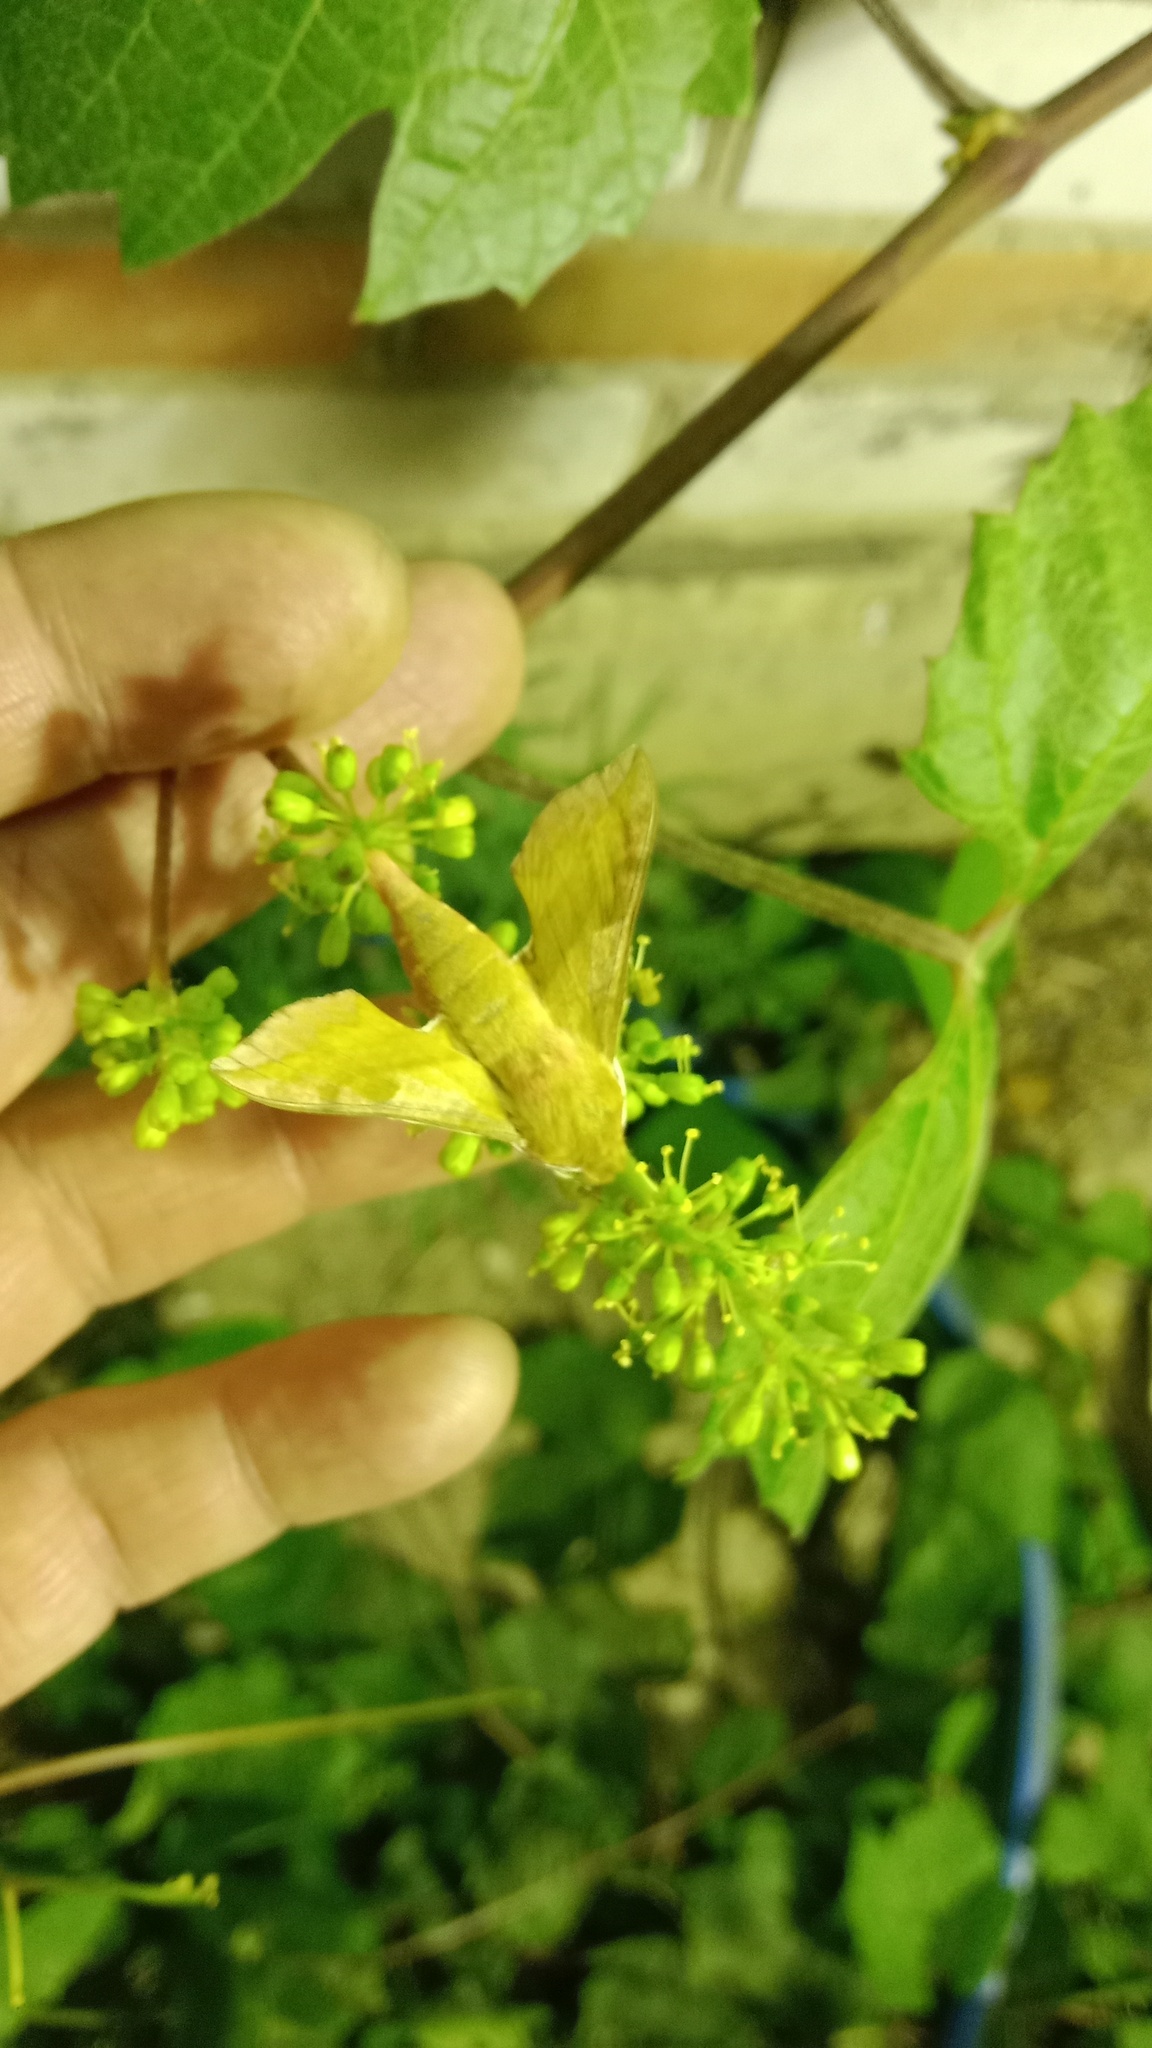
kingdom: Animalia
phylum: Arthropoda
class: Insecta
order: Lepidoptera
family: Sphingidae
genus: Deilephila
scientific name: Deilephila porcellus
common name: Small elephant hawk-moth
